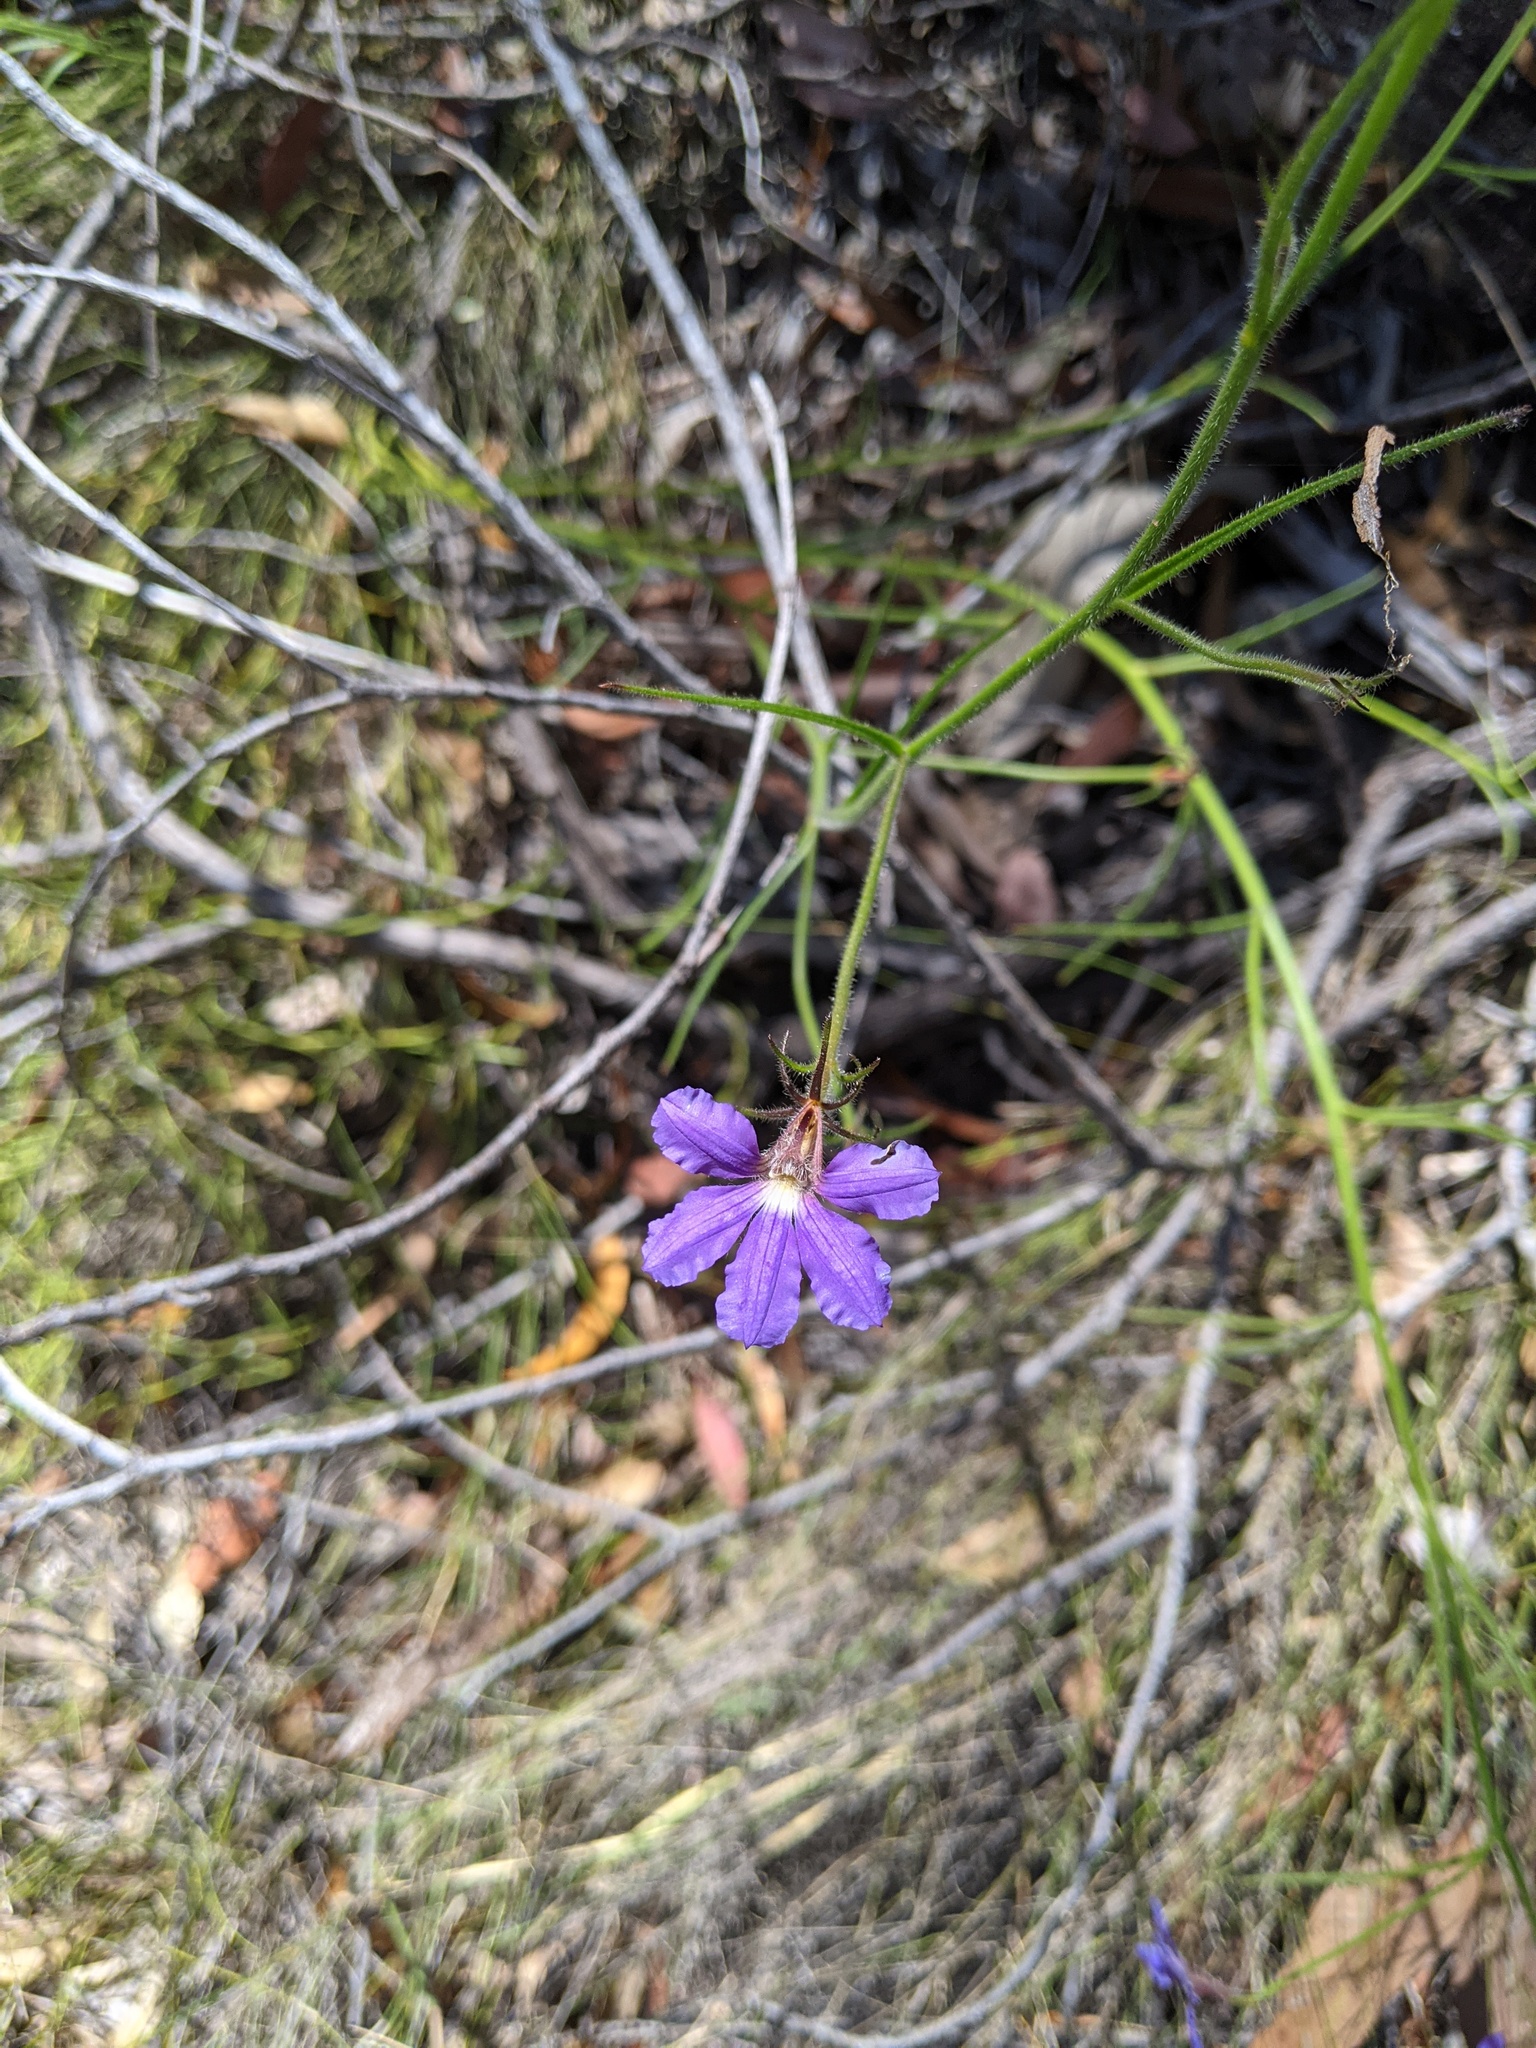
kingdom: Plantae
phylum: Tracheophyta
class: Magnoliopsida
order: Asterales
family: Goodeniaceae
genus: Scaevola
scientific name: Scaevola ramosissima
